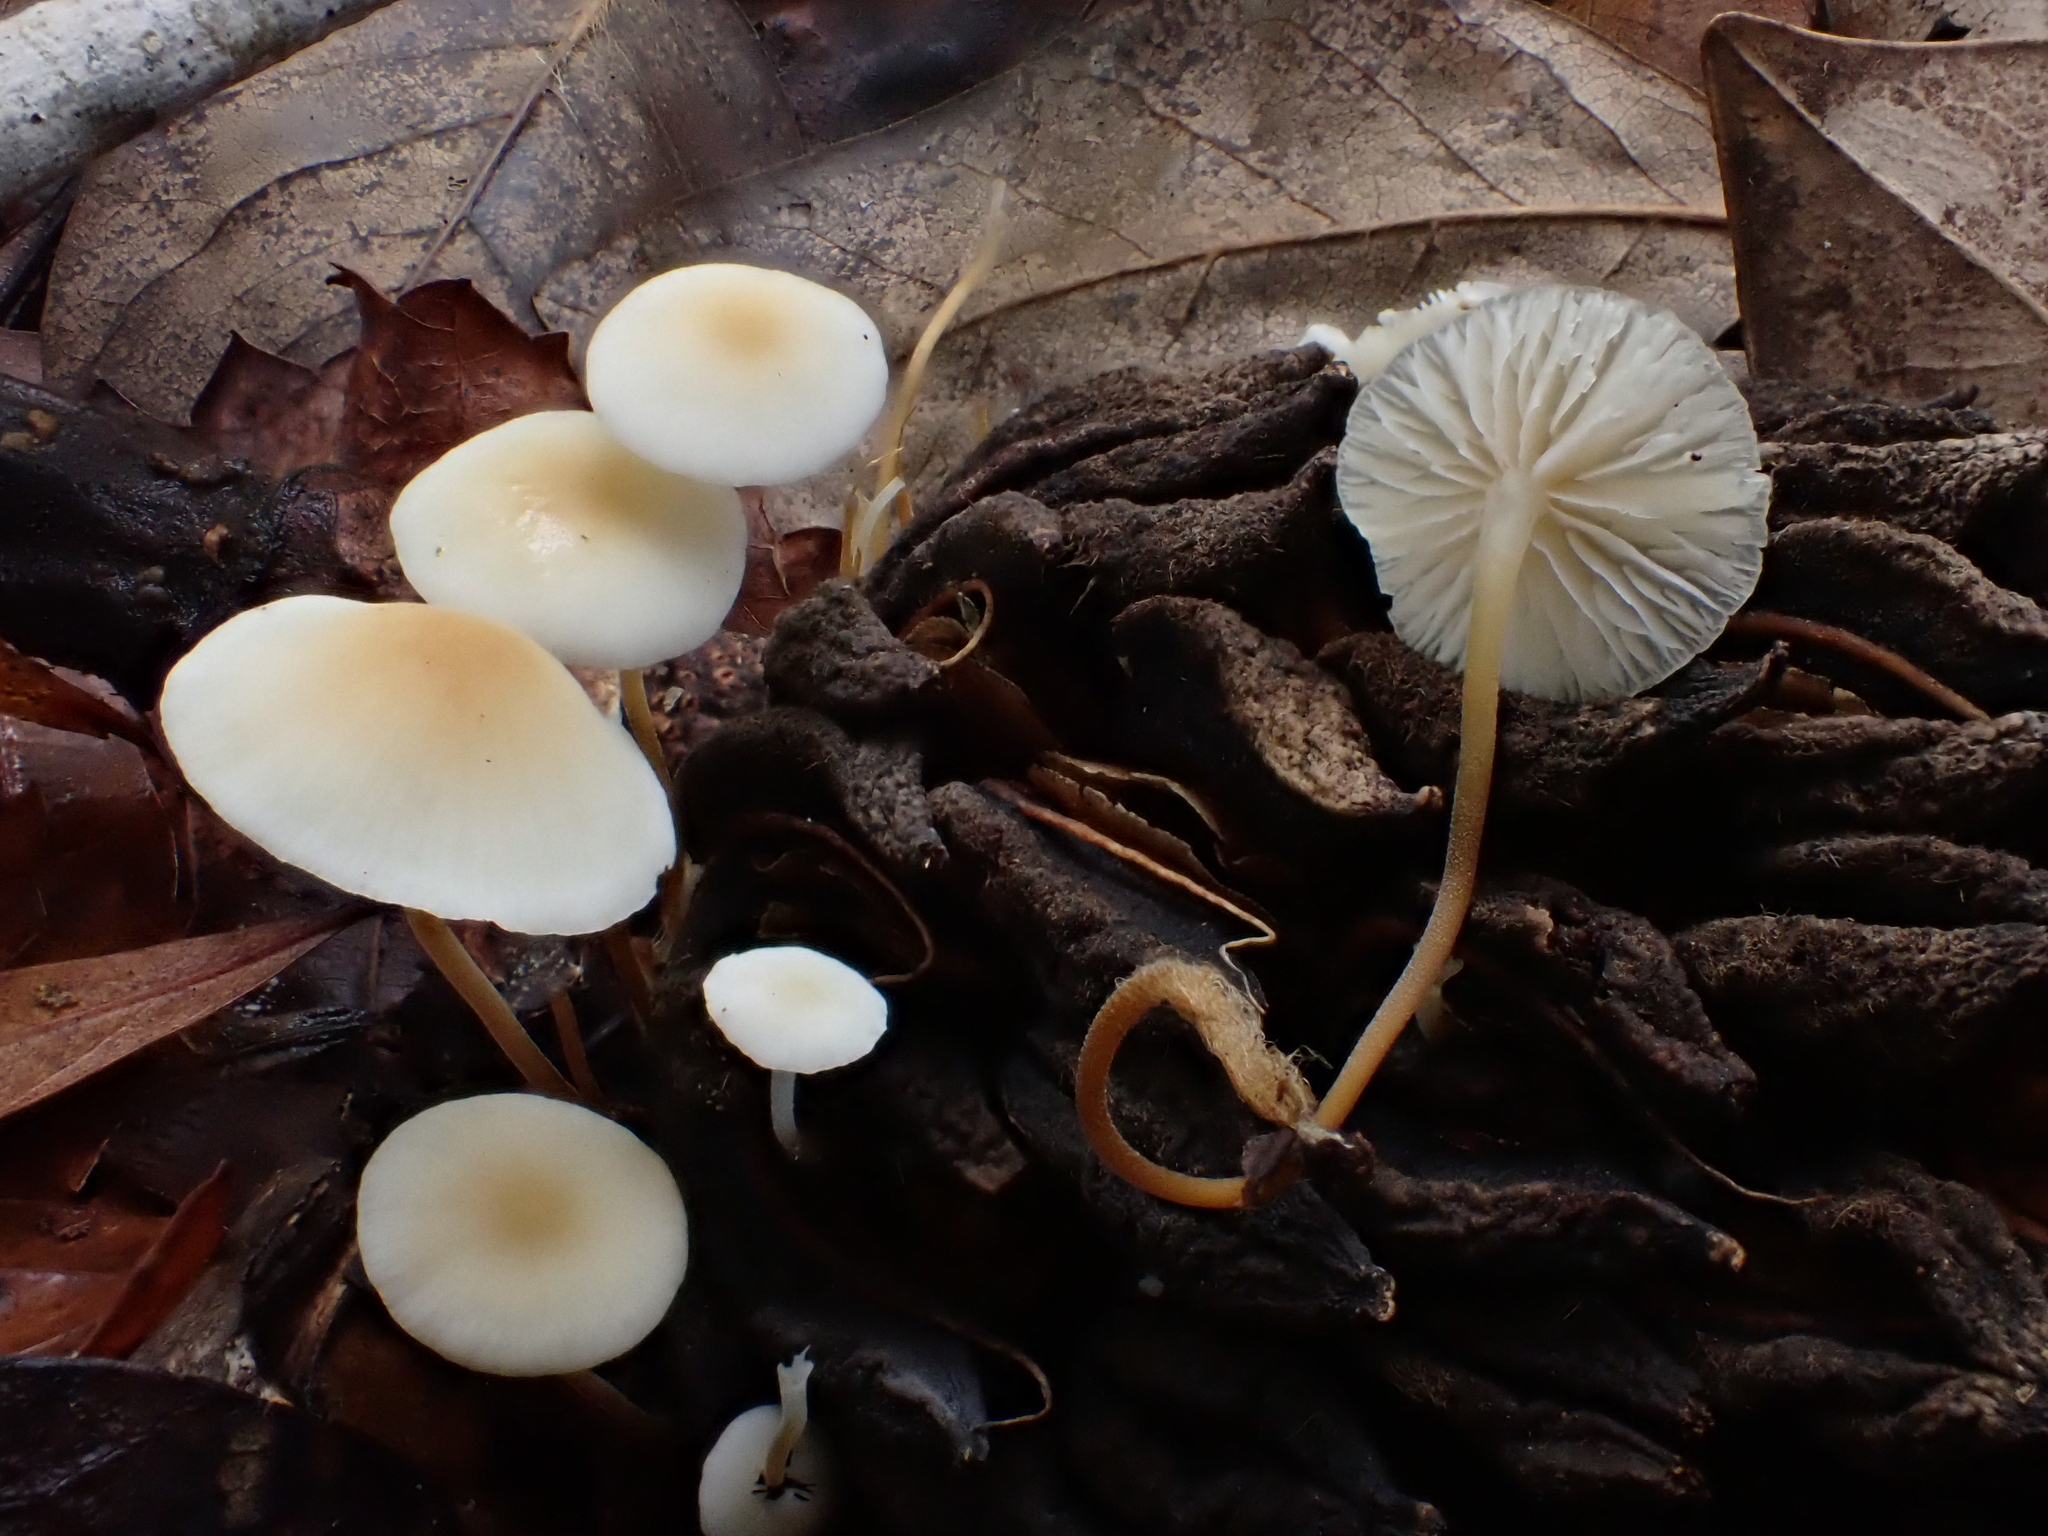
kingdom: Fungi
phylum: Basidiomycota
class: Agaricomycetes
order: Agaricales
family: Physalacriaceae
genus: Strobilurus
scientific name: Strobilurus conigenoides
